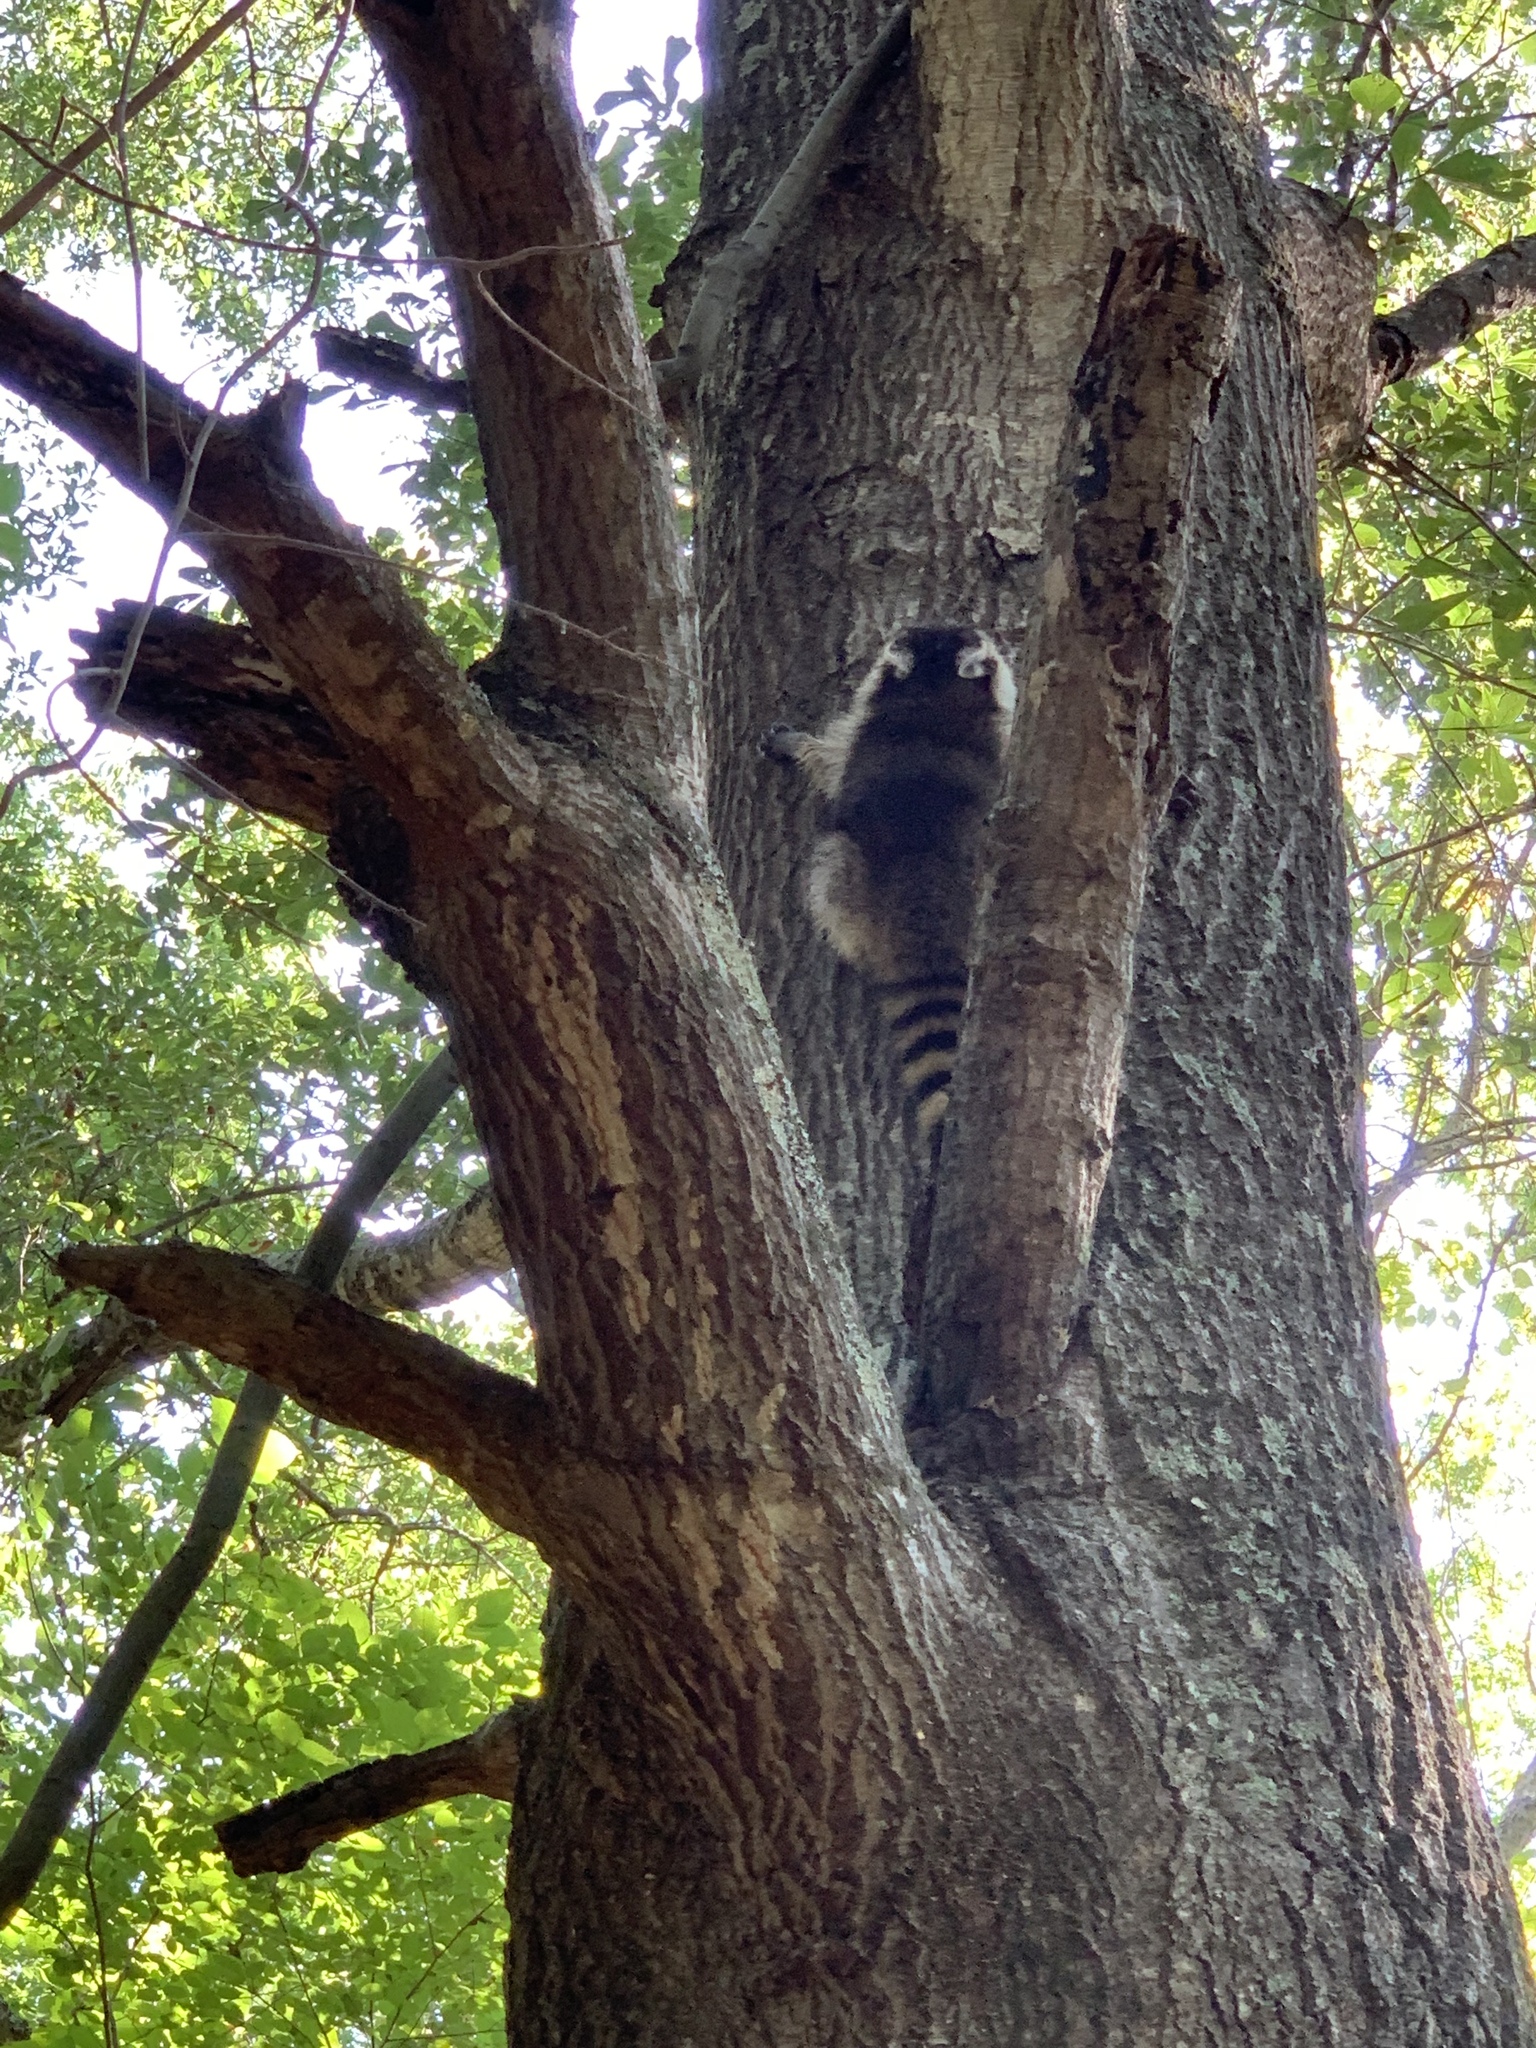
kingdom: Animalia
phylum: Chordata
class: Mammalia
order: Carnivora
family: Procyonidae
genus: Procyon
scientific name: Procyon lotor
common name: Raccoon
